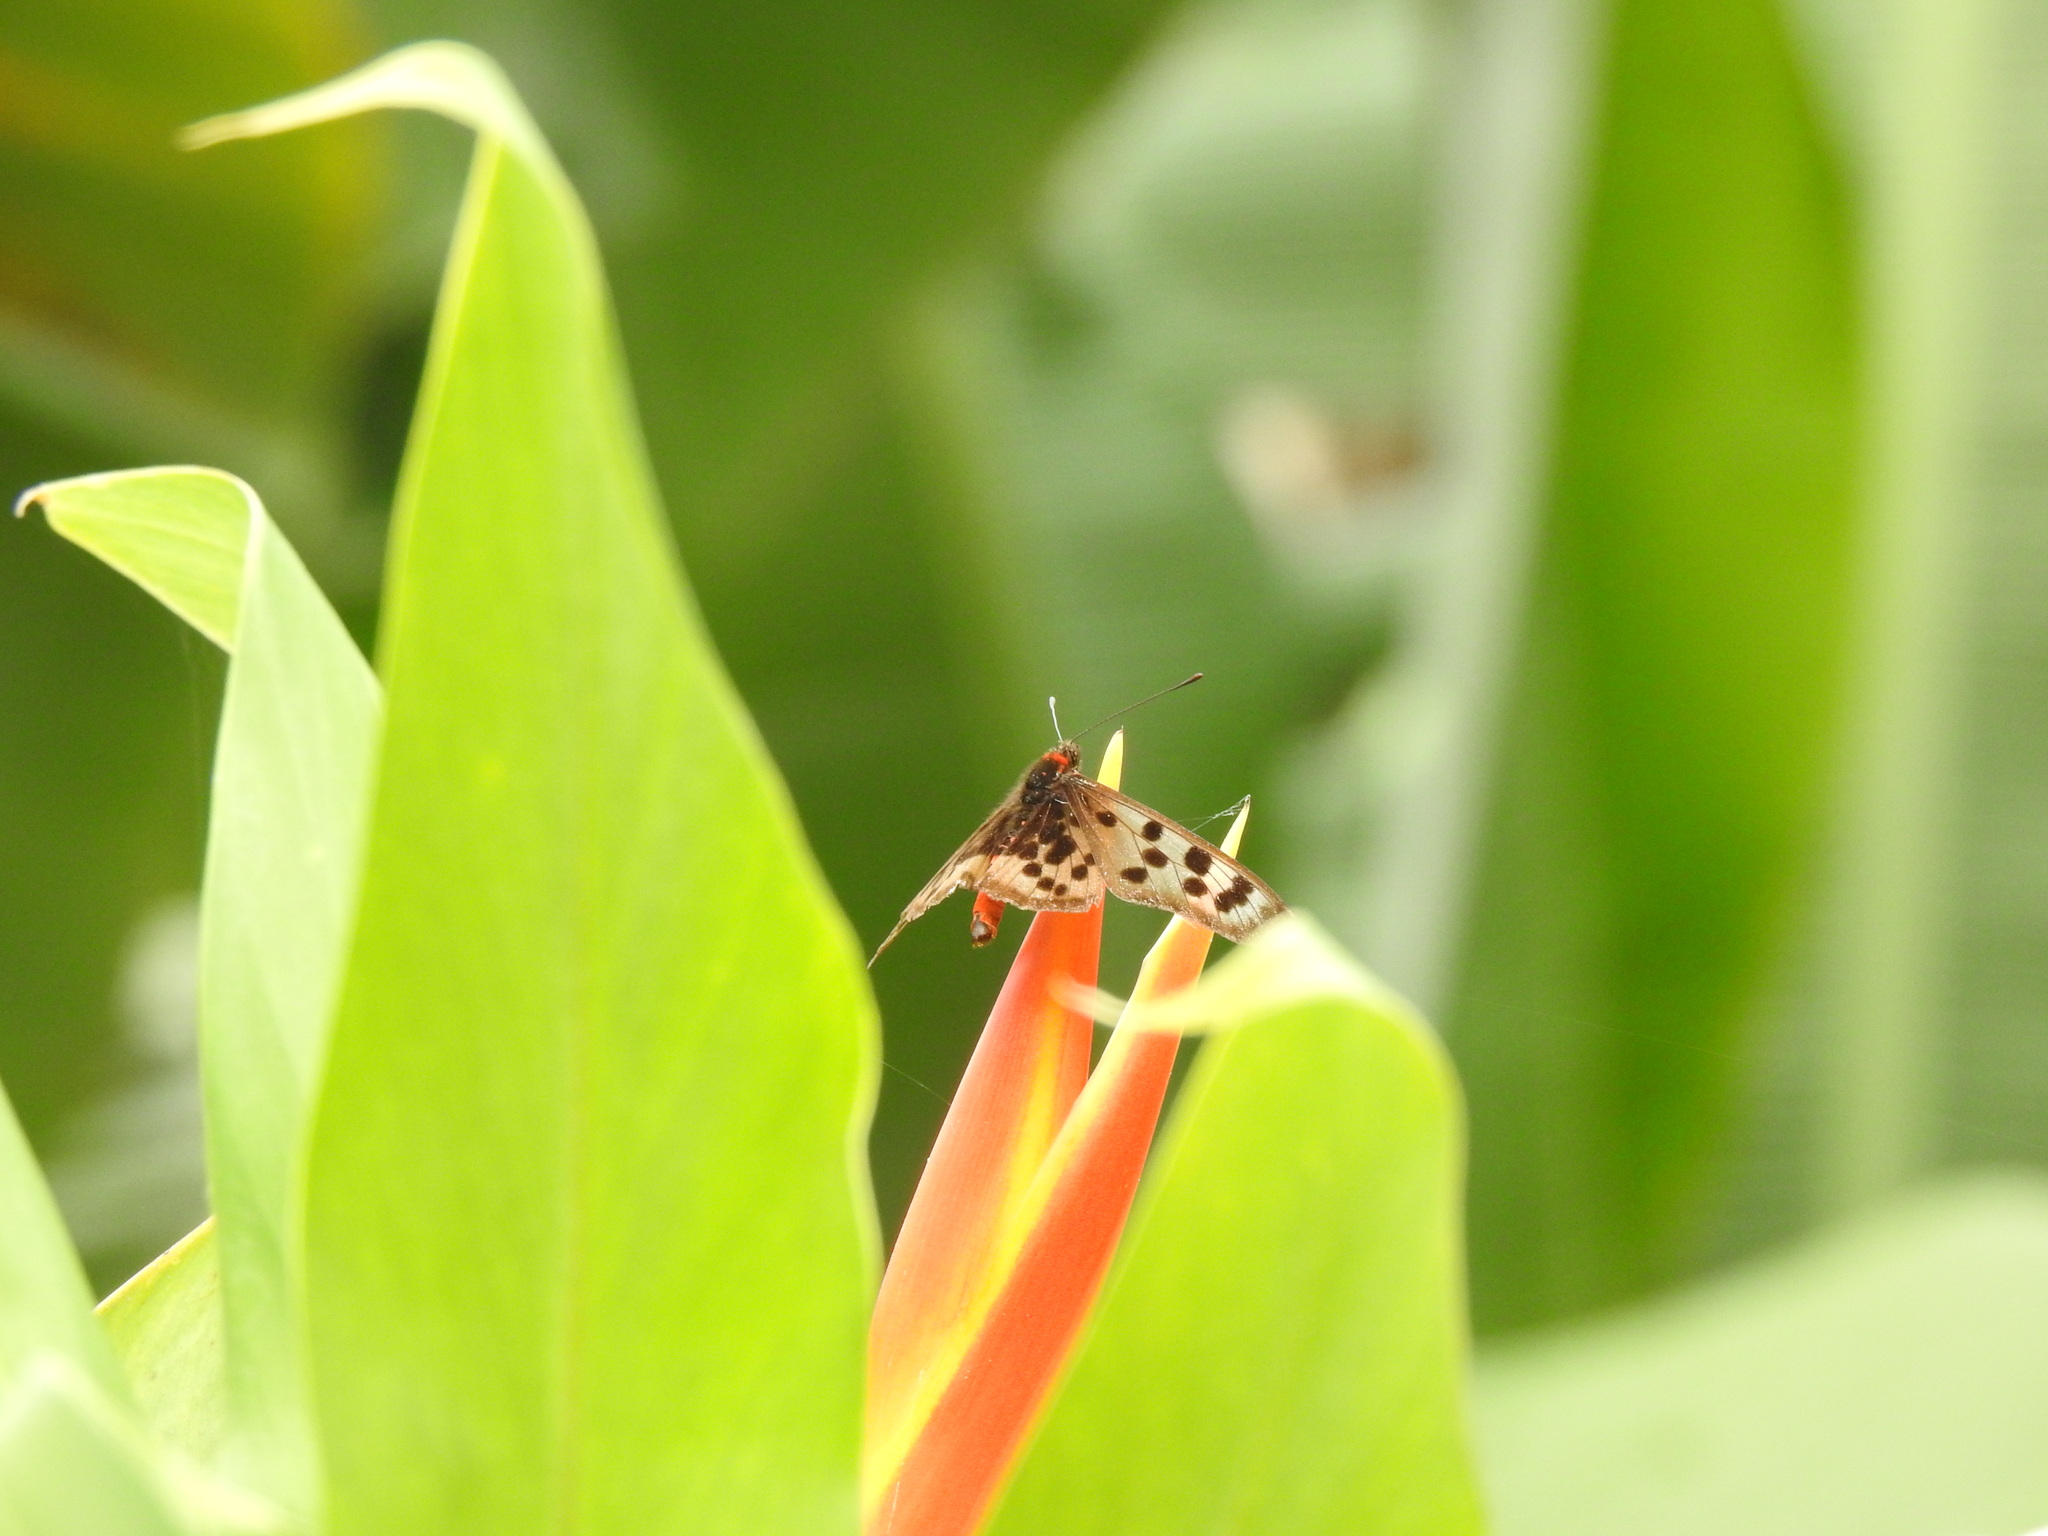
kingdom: Animalia
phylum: Arthropoda
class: Insecta
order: Lepidoptera
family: Nymphalidae
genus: Rubraea
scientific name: Rubraea
